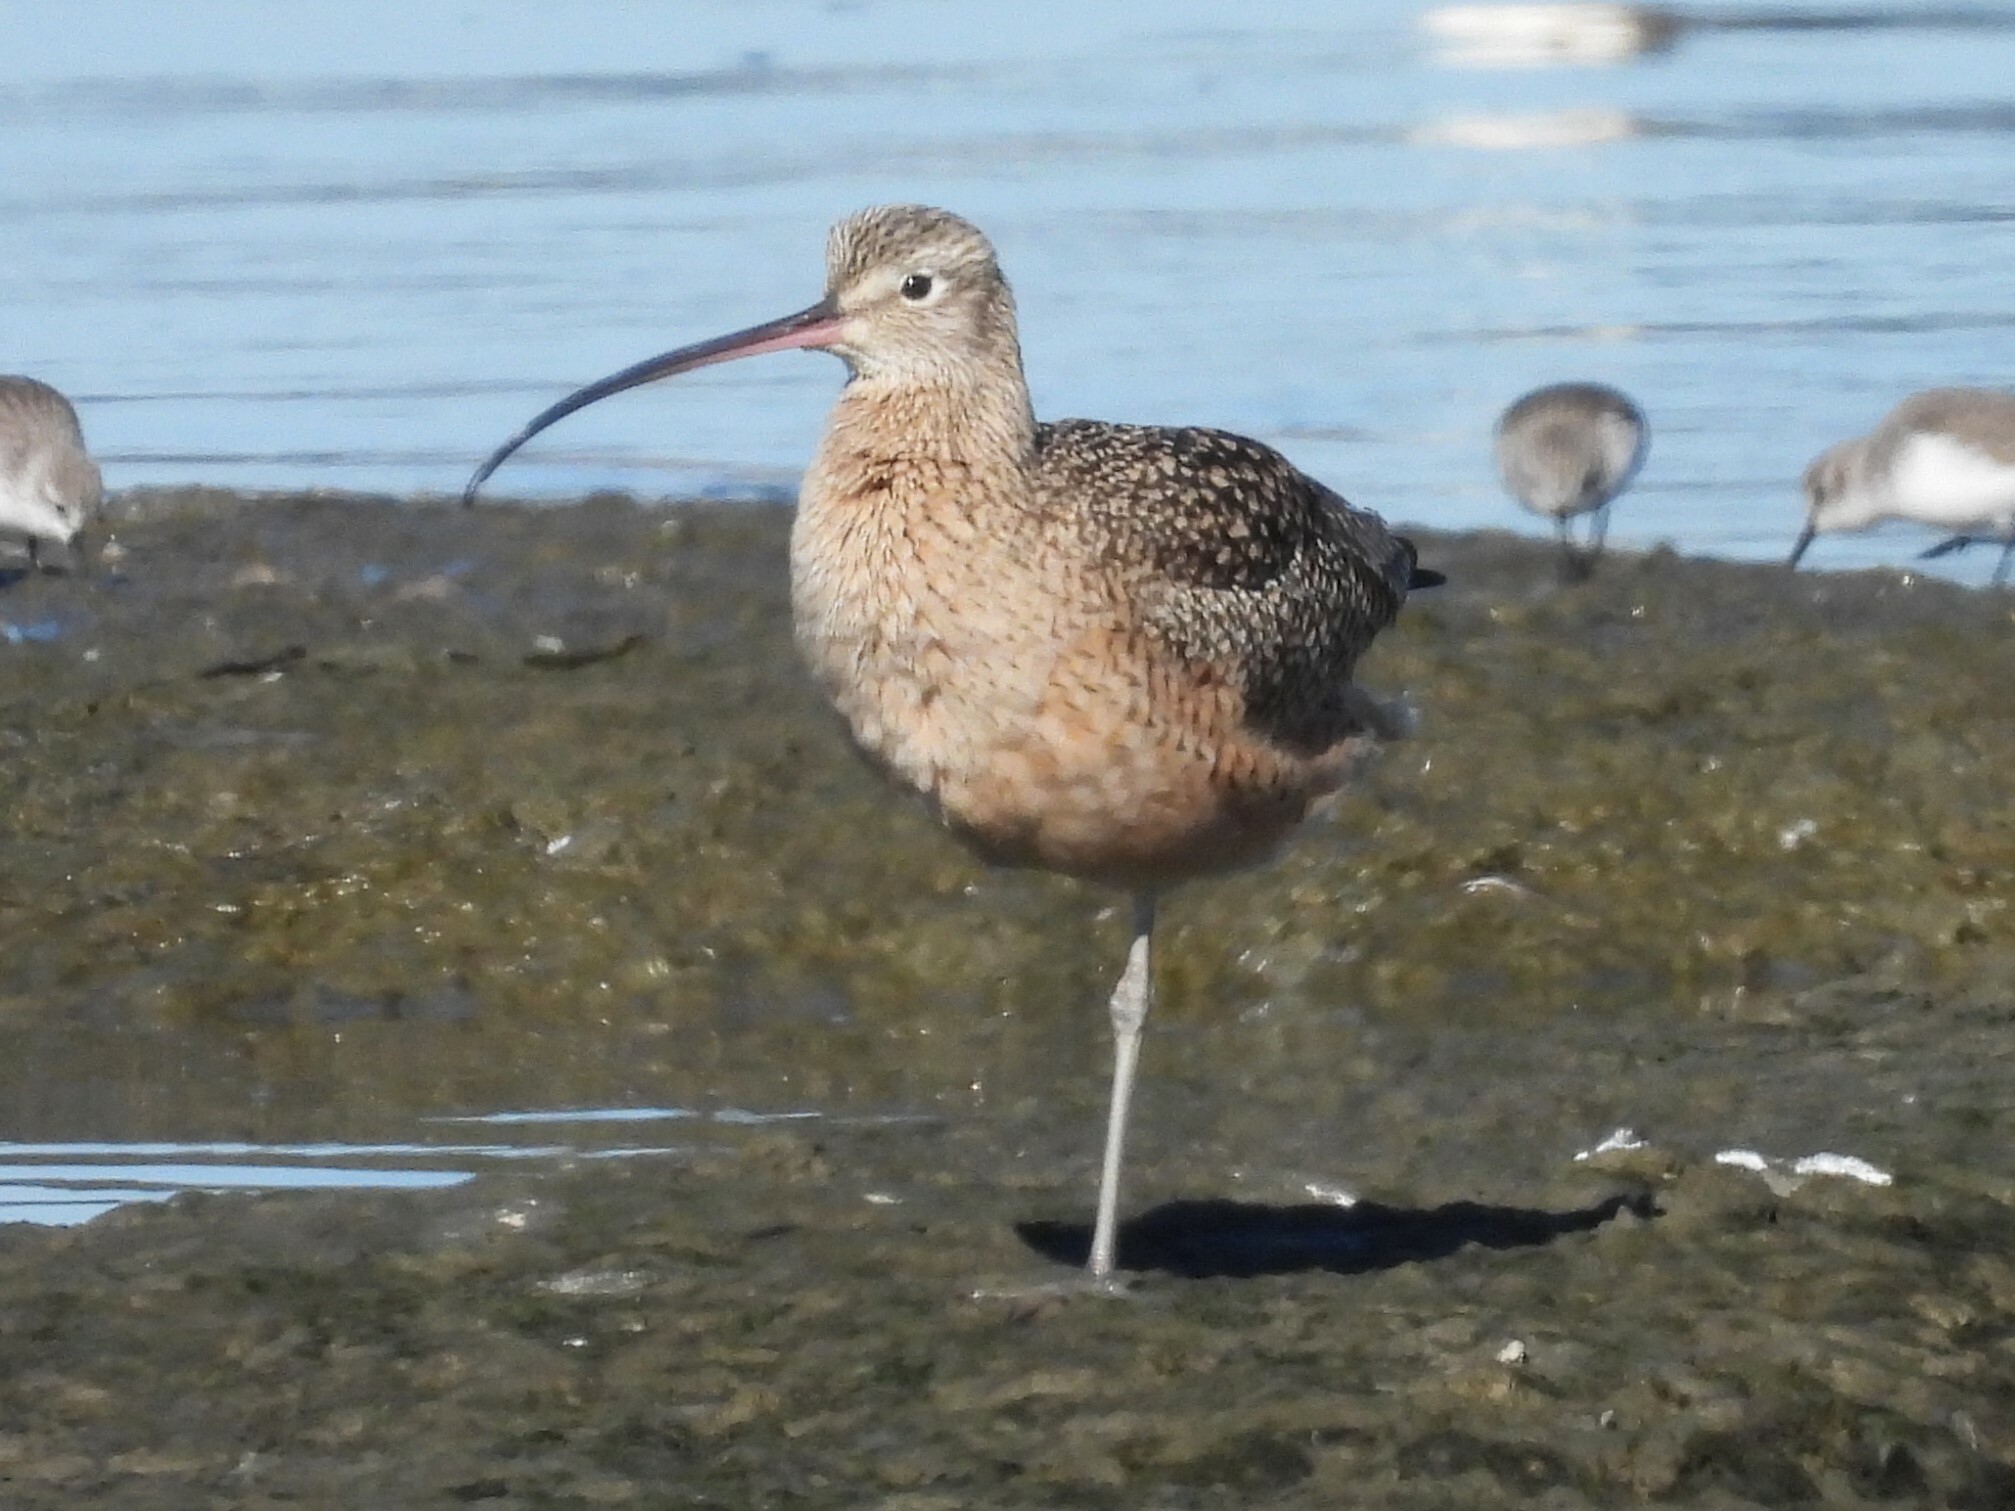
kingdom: Animalia
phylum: Chordata
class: Aves
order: Charadriiformes
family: Scolopacidae
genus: Numenius
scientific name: Numenius americanus
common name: Long-billed curlew
